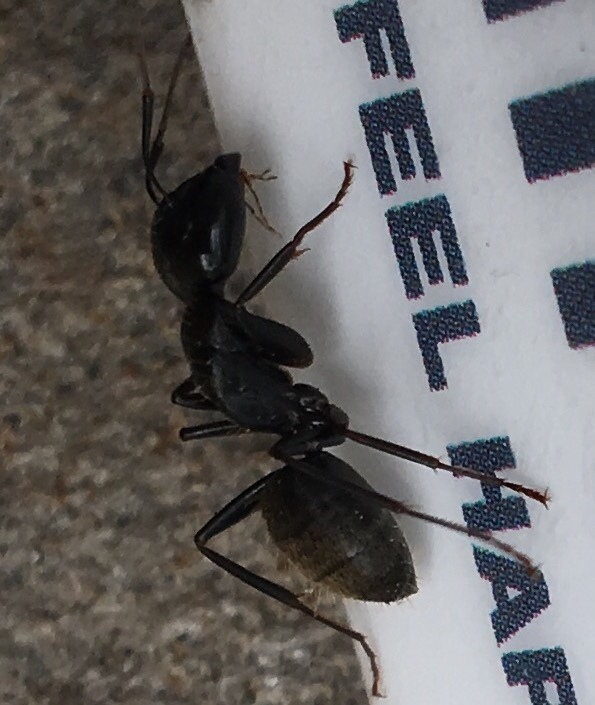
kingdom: Animalia
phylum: Arthropoda
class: Insecta
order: Hymenoptera
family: Formicidae
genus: Camponotus
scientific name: Camponotus pennsylvanicus
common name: Black carpenter ant
